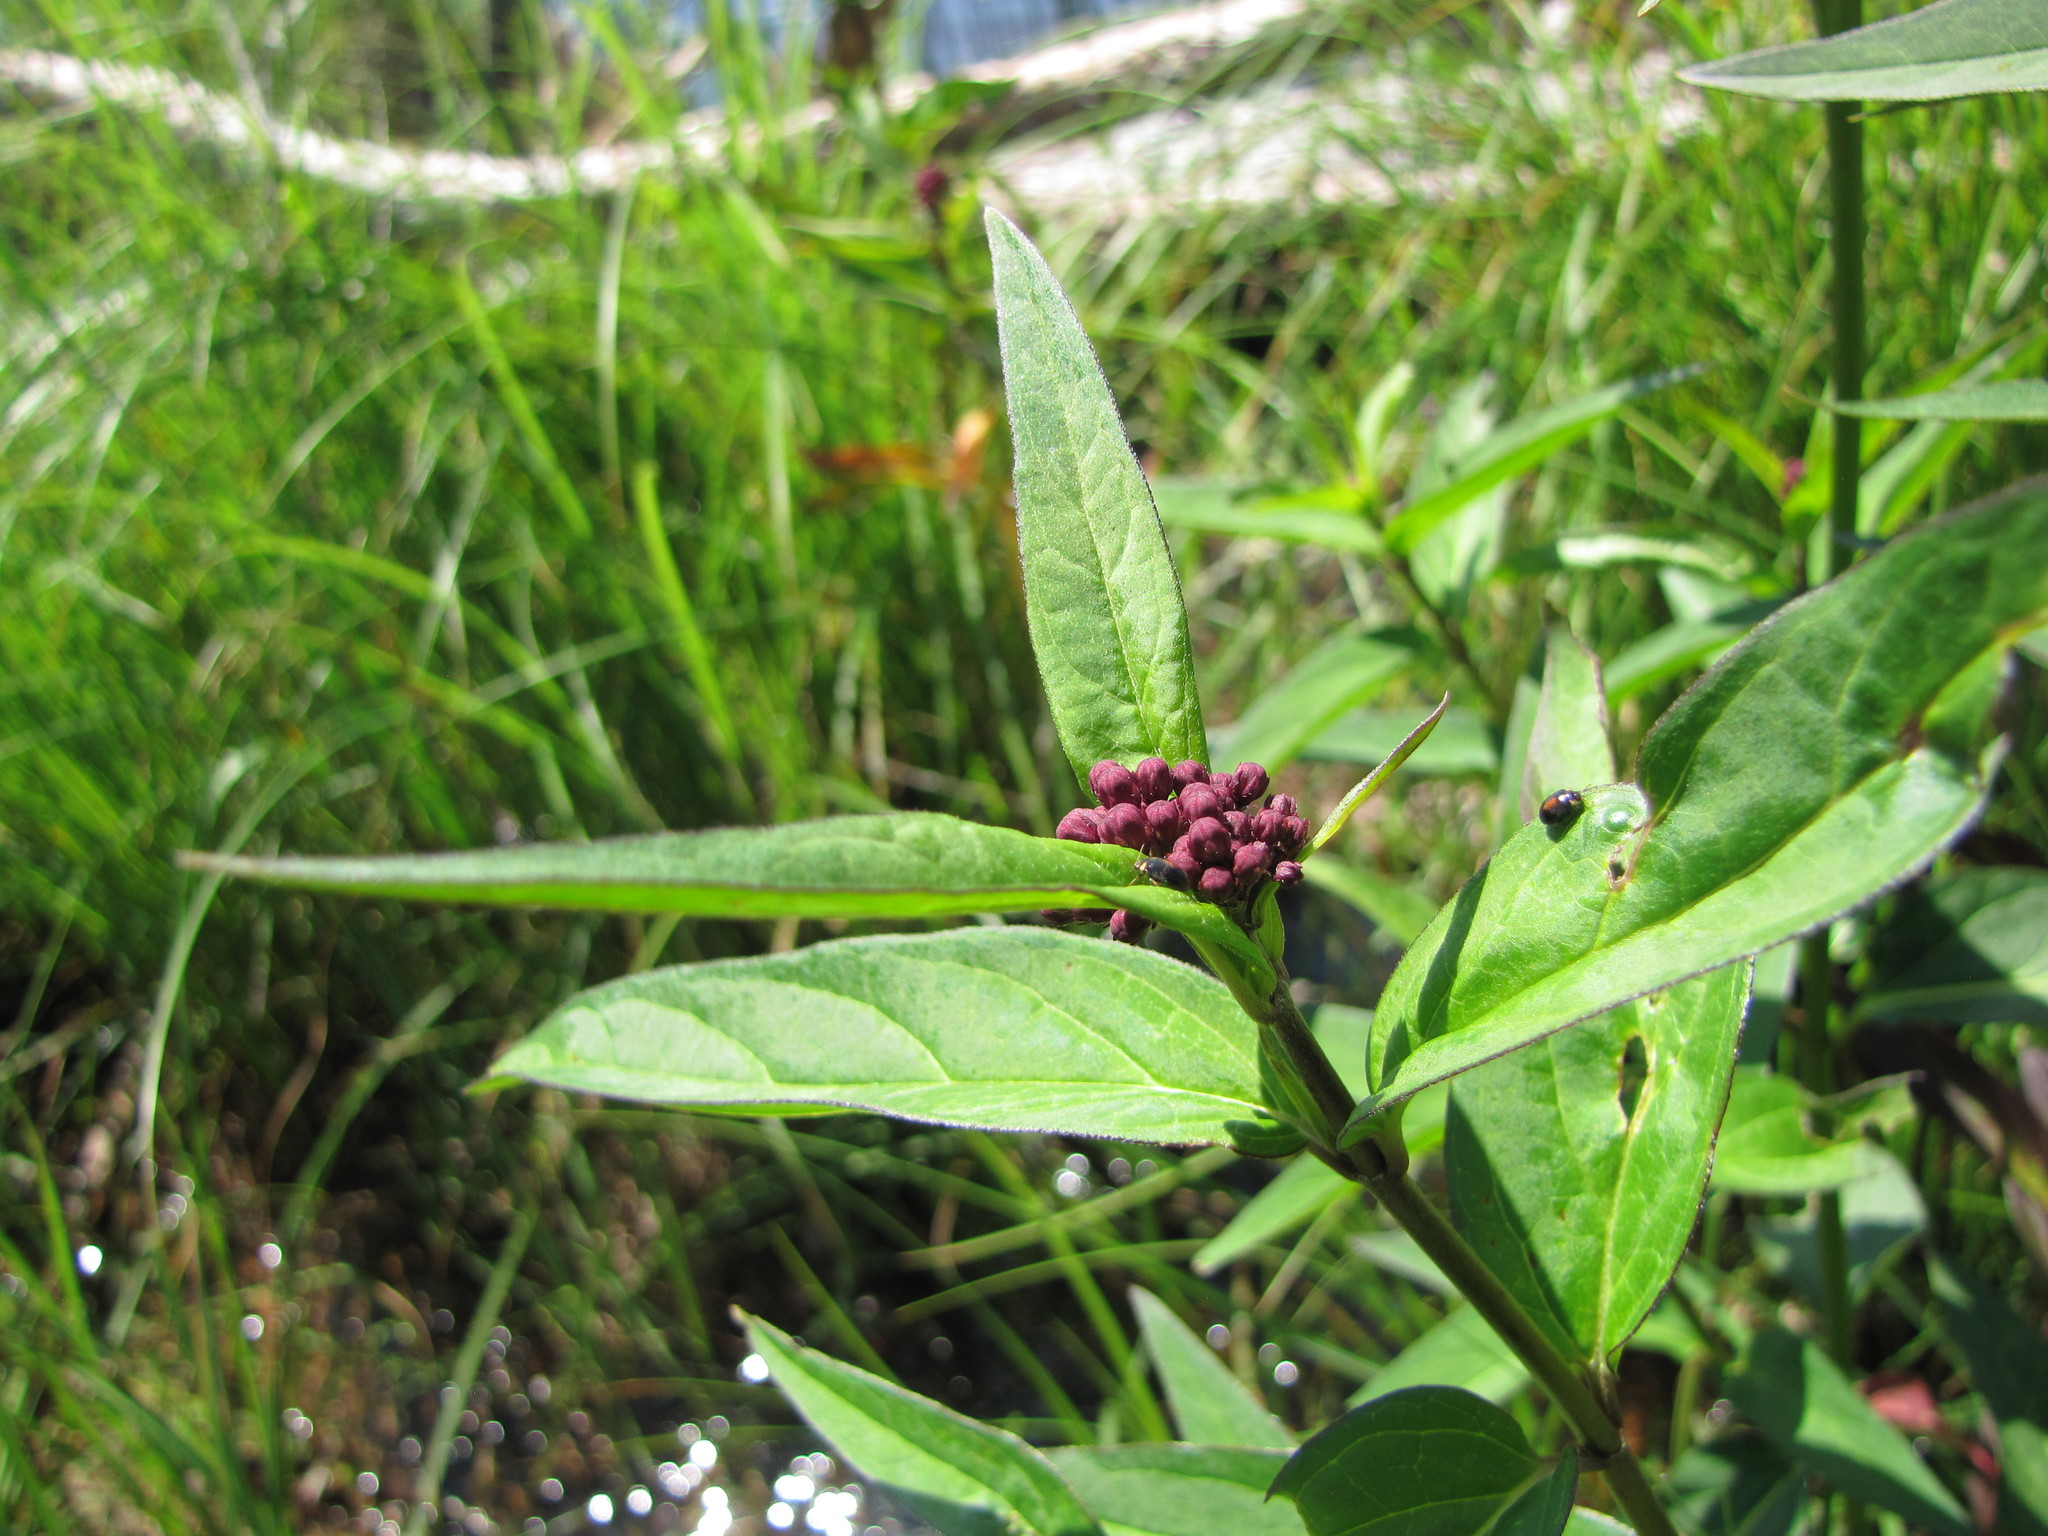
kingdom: Animalia
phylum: Arthropoda
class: Insecta
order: Coleoptera
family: Scirtidae
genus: Scirtes
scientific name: Scirtes orbiculatus
